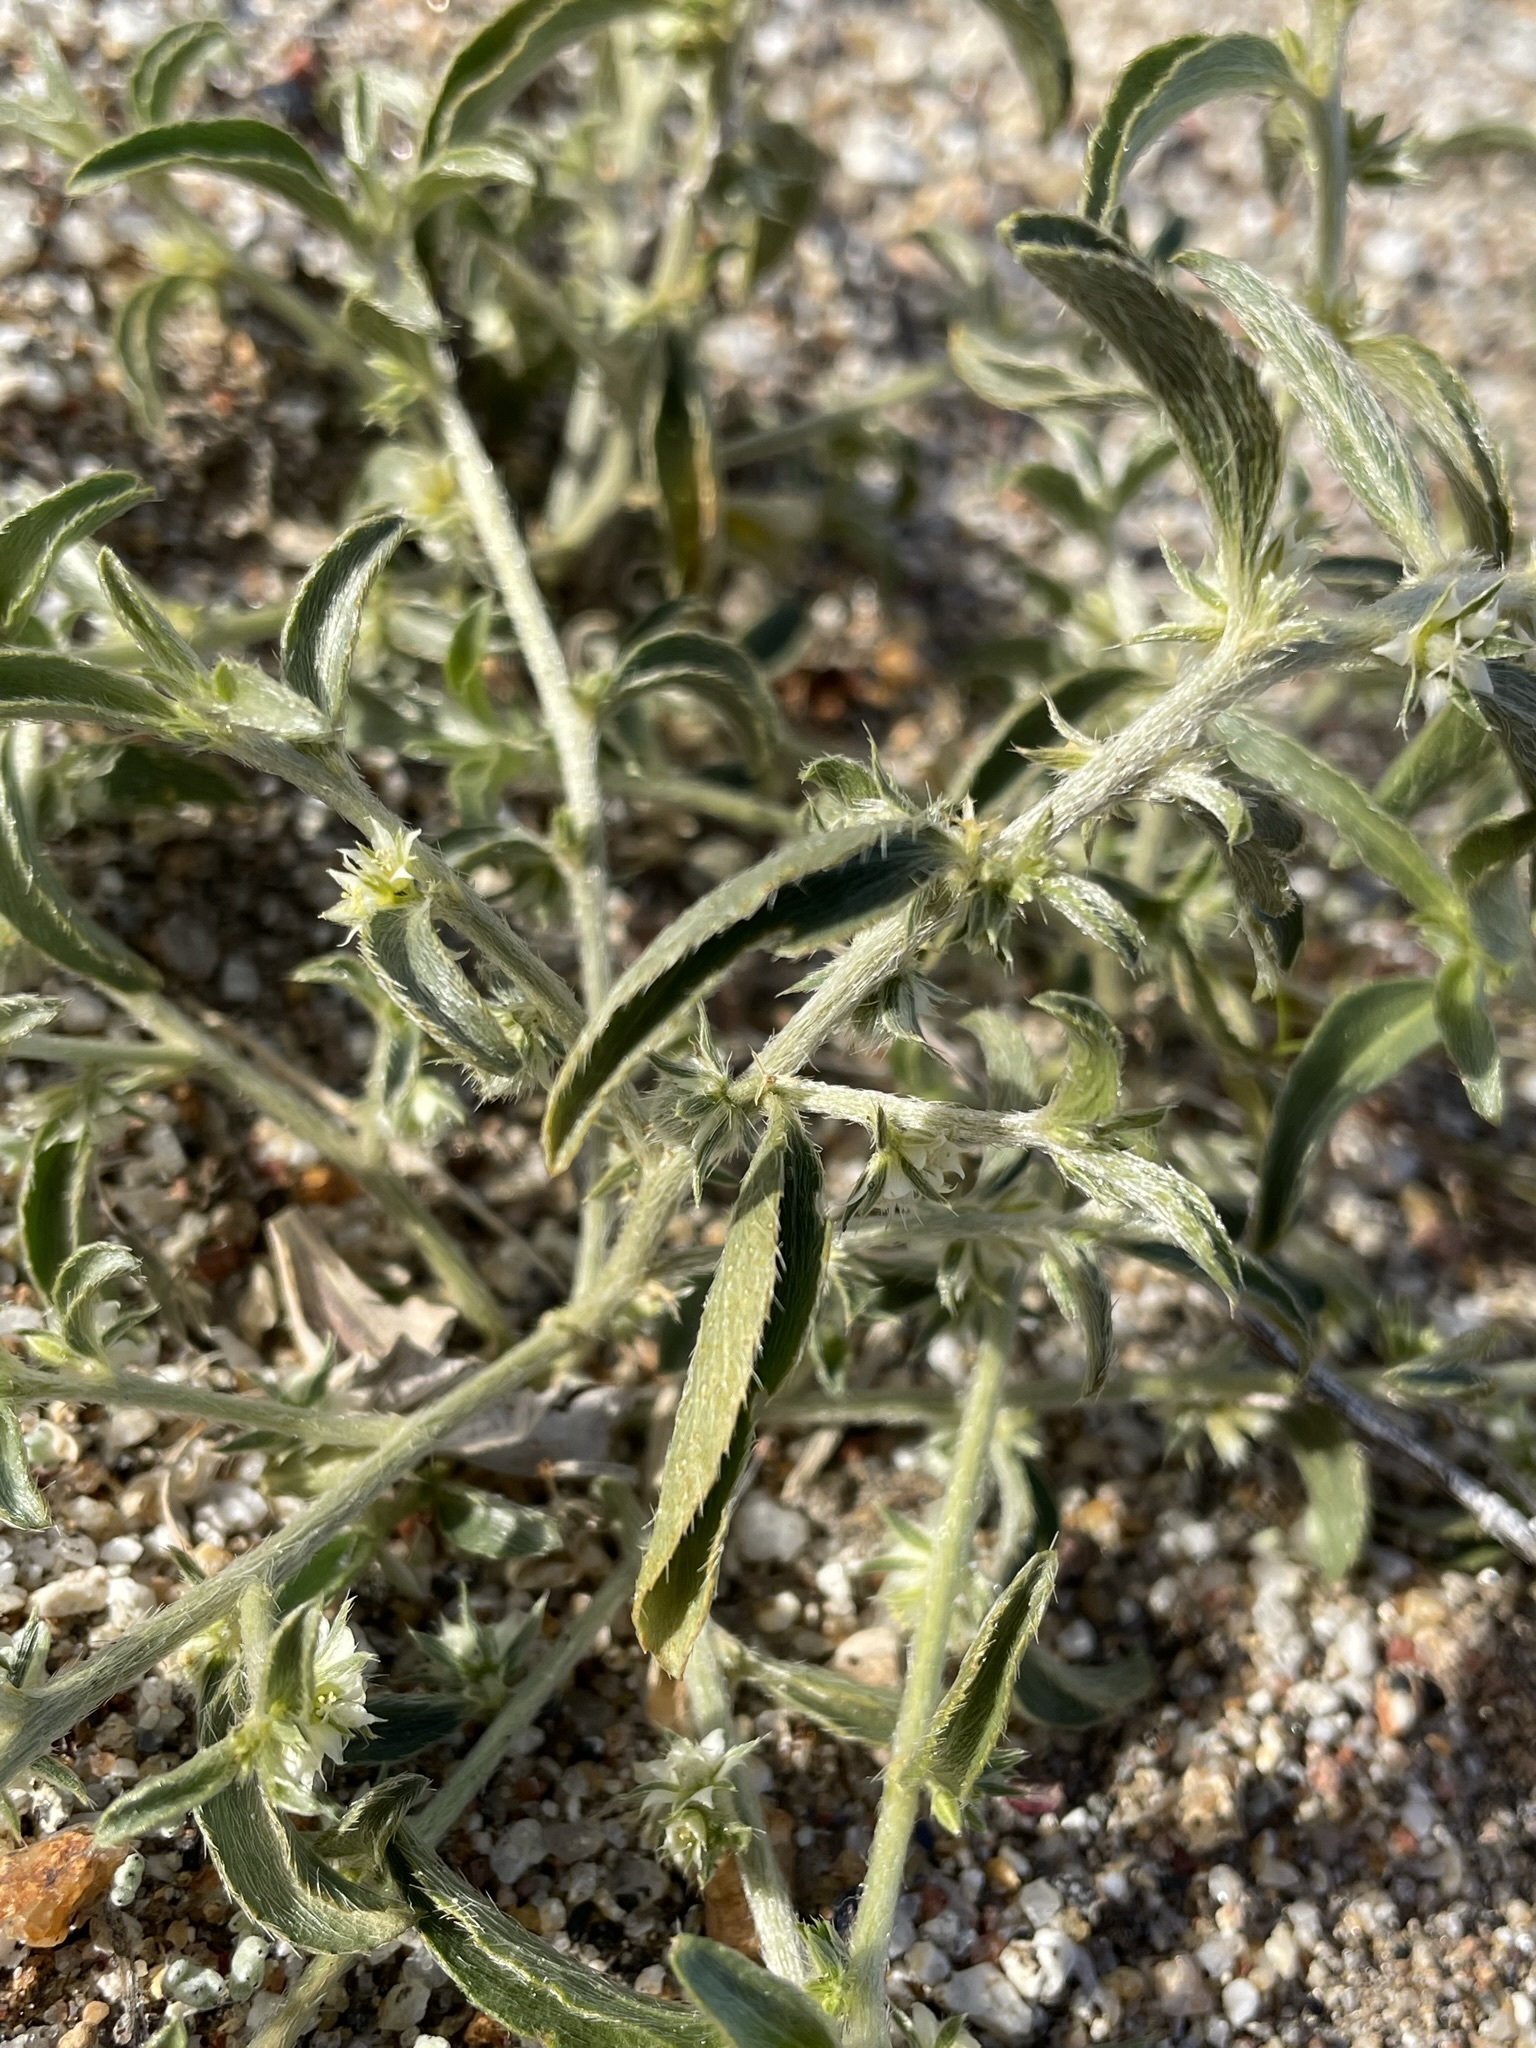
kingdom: Plantae
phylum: Tracheophyta
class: Magnoliopsida
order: Malpighiales
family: Euphorbiaceae
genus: Ditaxis
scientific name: Ditaxis serrata
